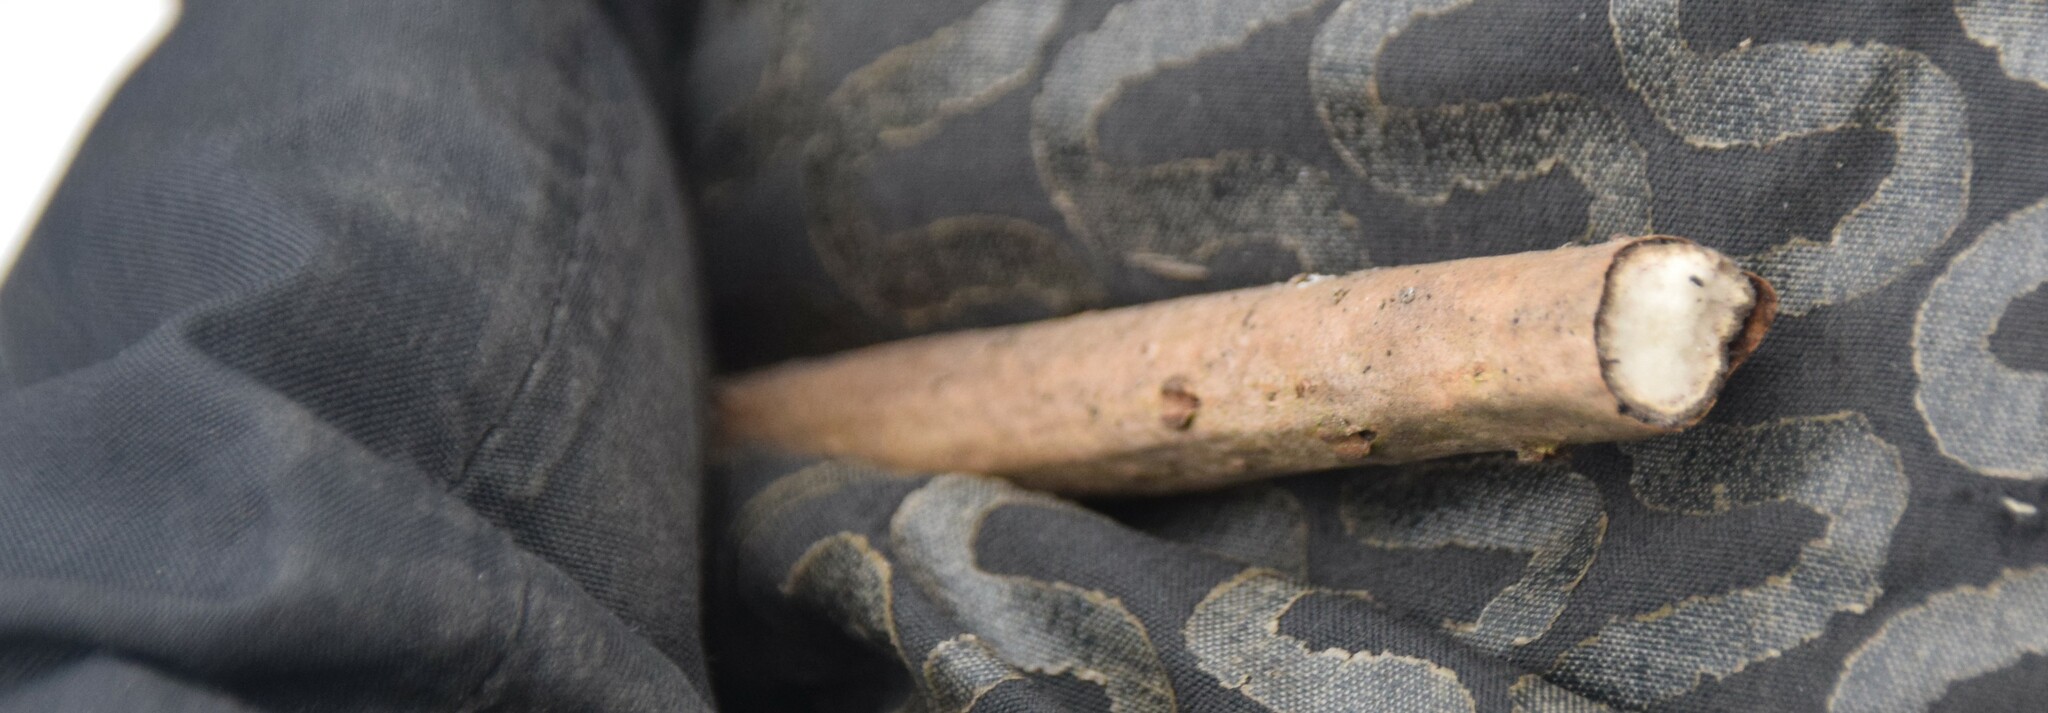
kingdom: Plantae
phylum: Tracheophyta
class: Magnoliopsida
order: Dipsacales
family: Viburnaceae
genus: Sambucus
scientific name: Sambucus canadensis
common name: American elder
